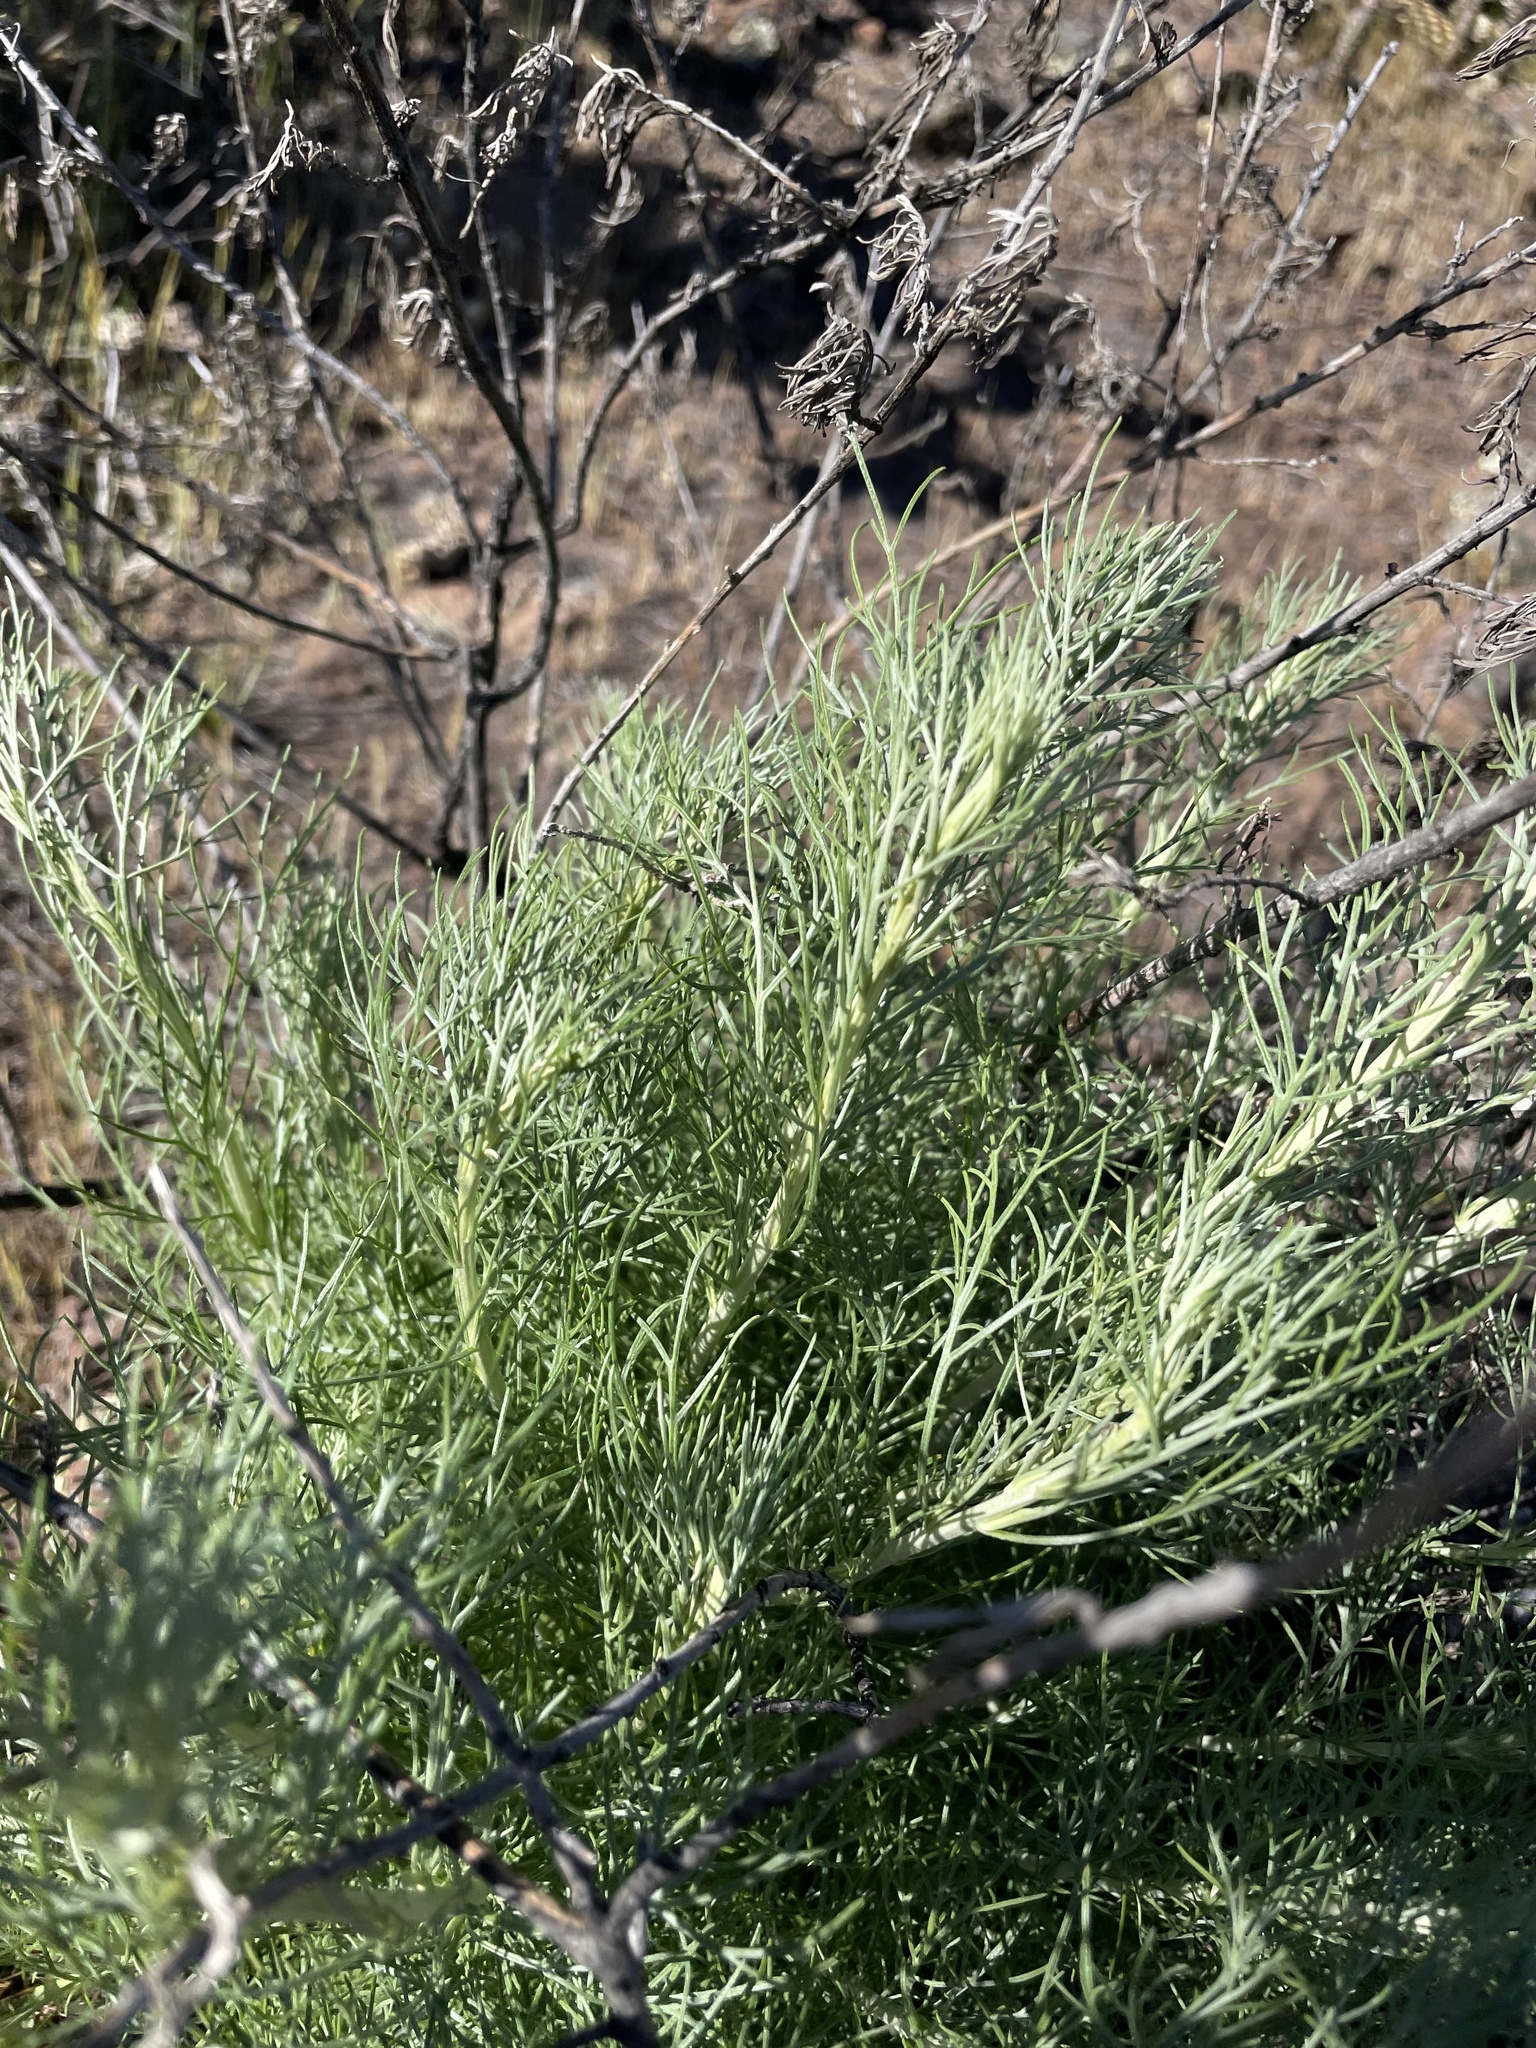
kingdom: Plantae
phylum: Tracheophyta
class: Magnoliopsida
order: Asterales
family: Asteraceae
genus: Artemisia
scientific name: Artemisia californica
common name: California sagebrush
